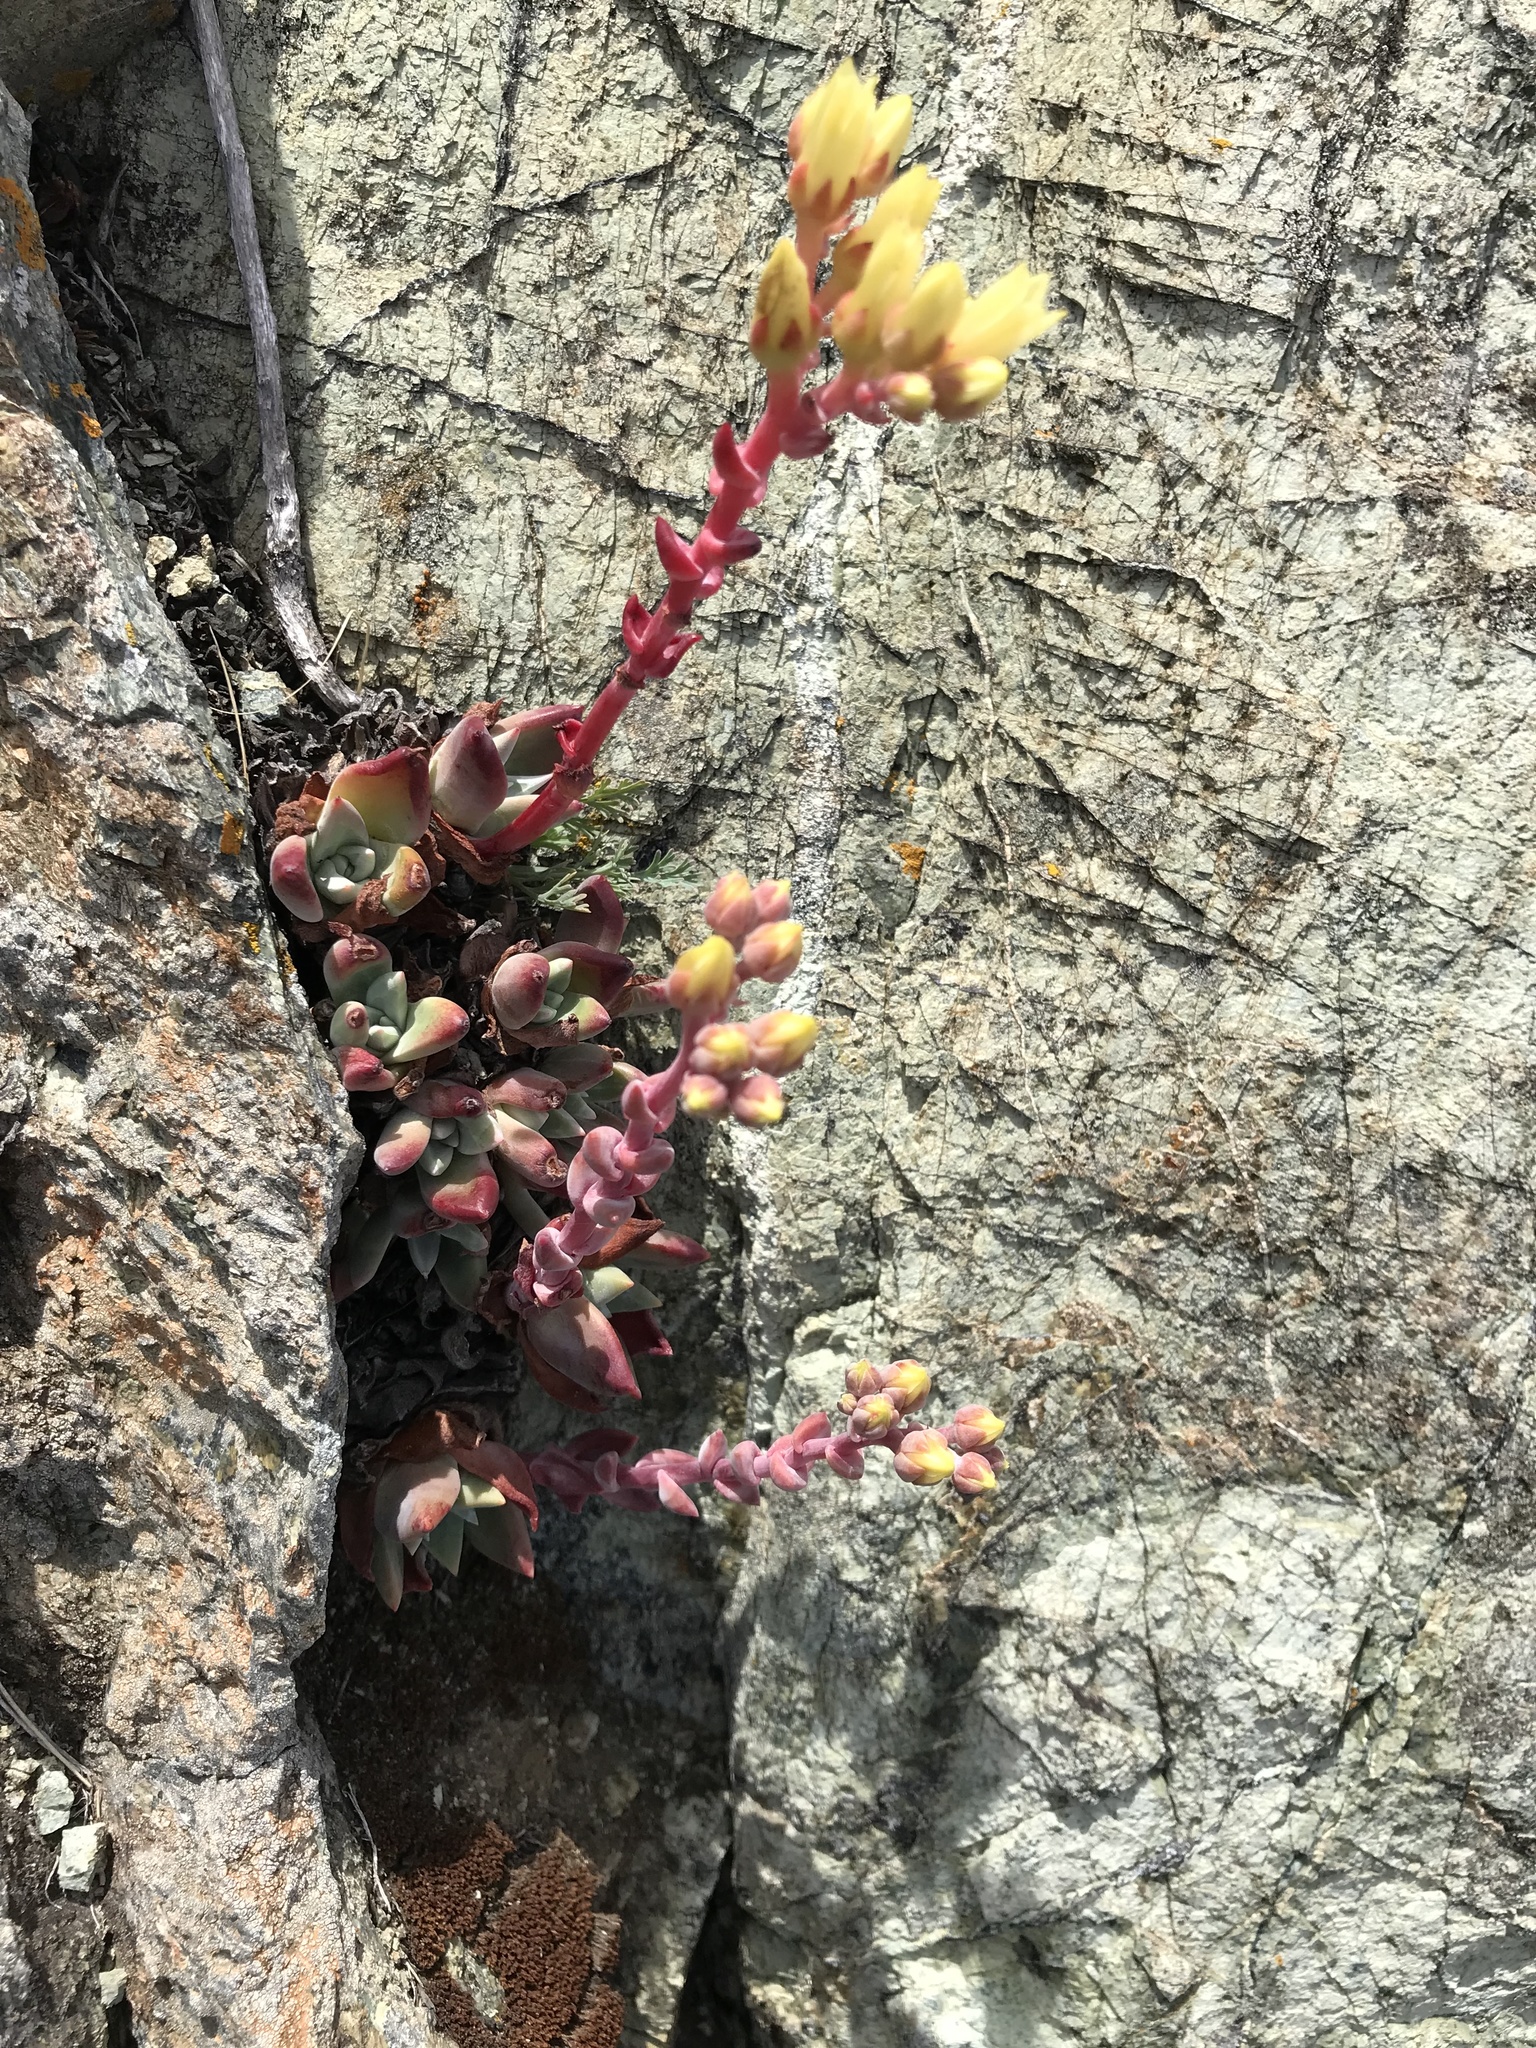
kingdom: Plantae
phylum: Tracheophyta
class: Magnoliopsida
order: Saxifragales
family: Crassulaceae
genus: Dudleya
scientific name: Dudleya farinosa
